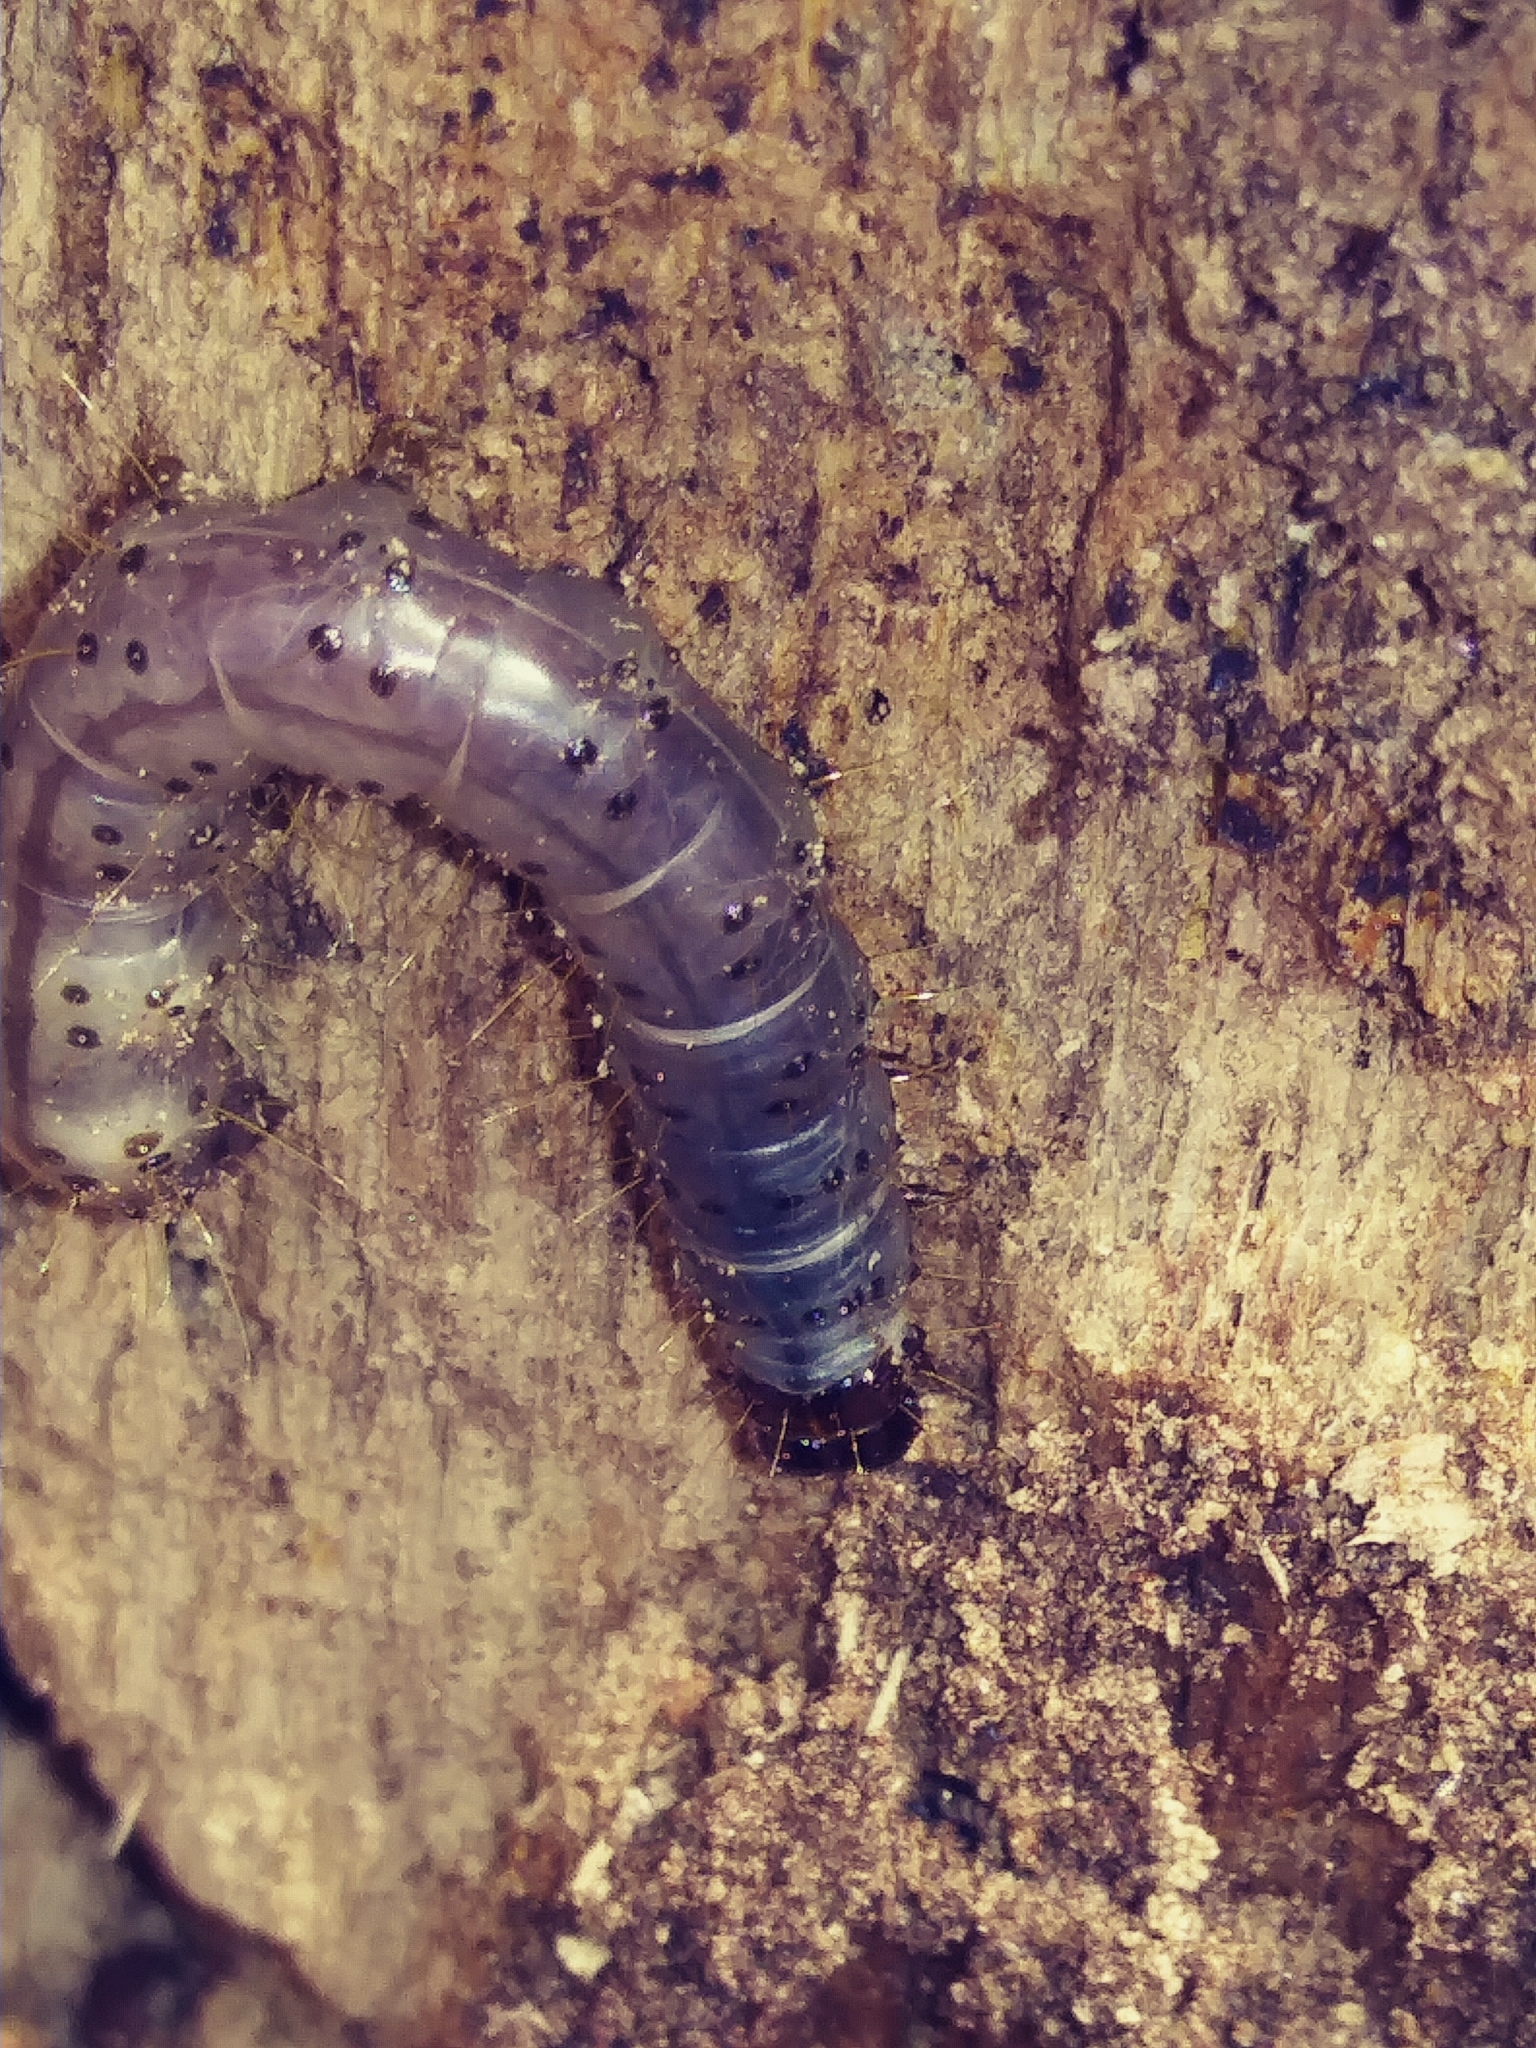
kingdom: Animalia
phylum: Arthropoda
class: Insecta
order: Lepidoptera
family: Erebidae
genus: Scolecocampa
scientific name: Scolecocampa liburna
